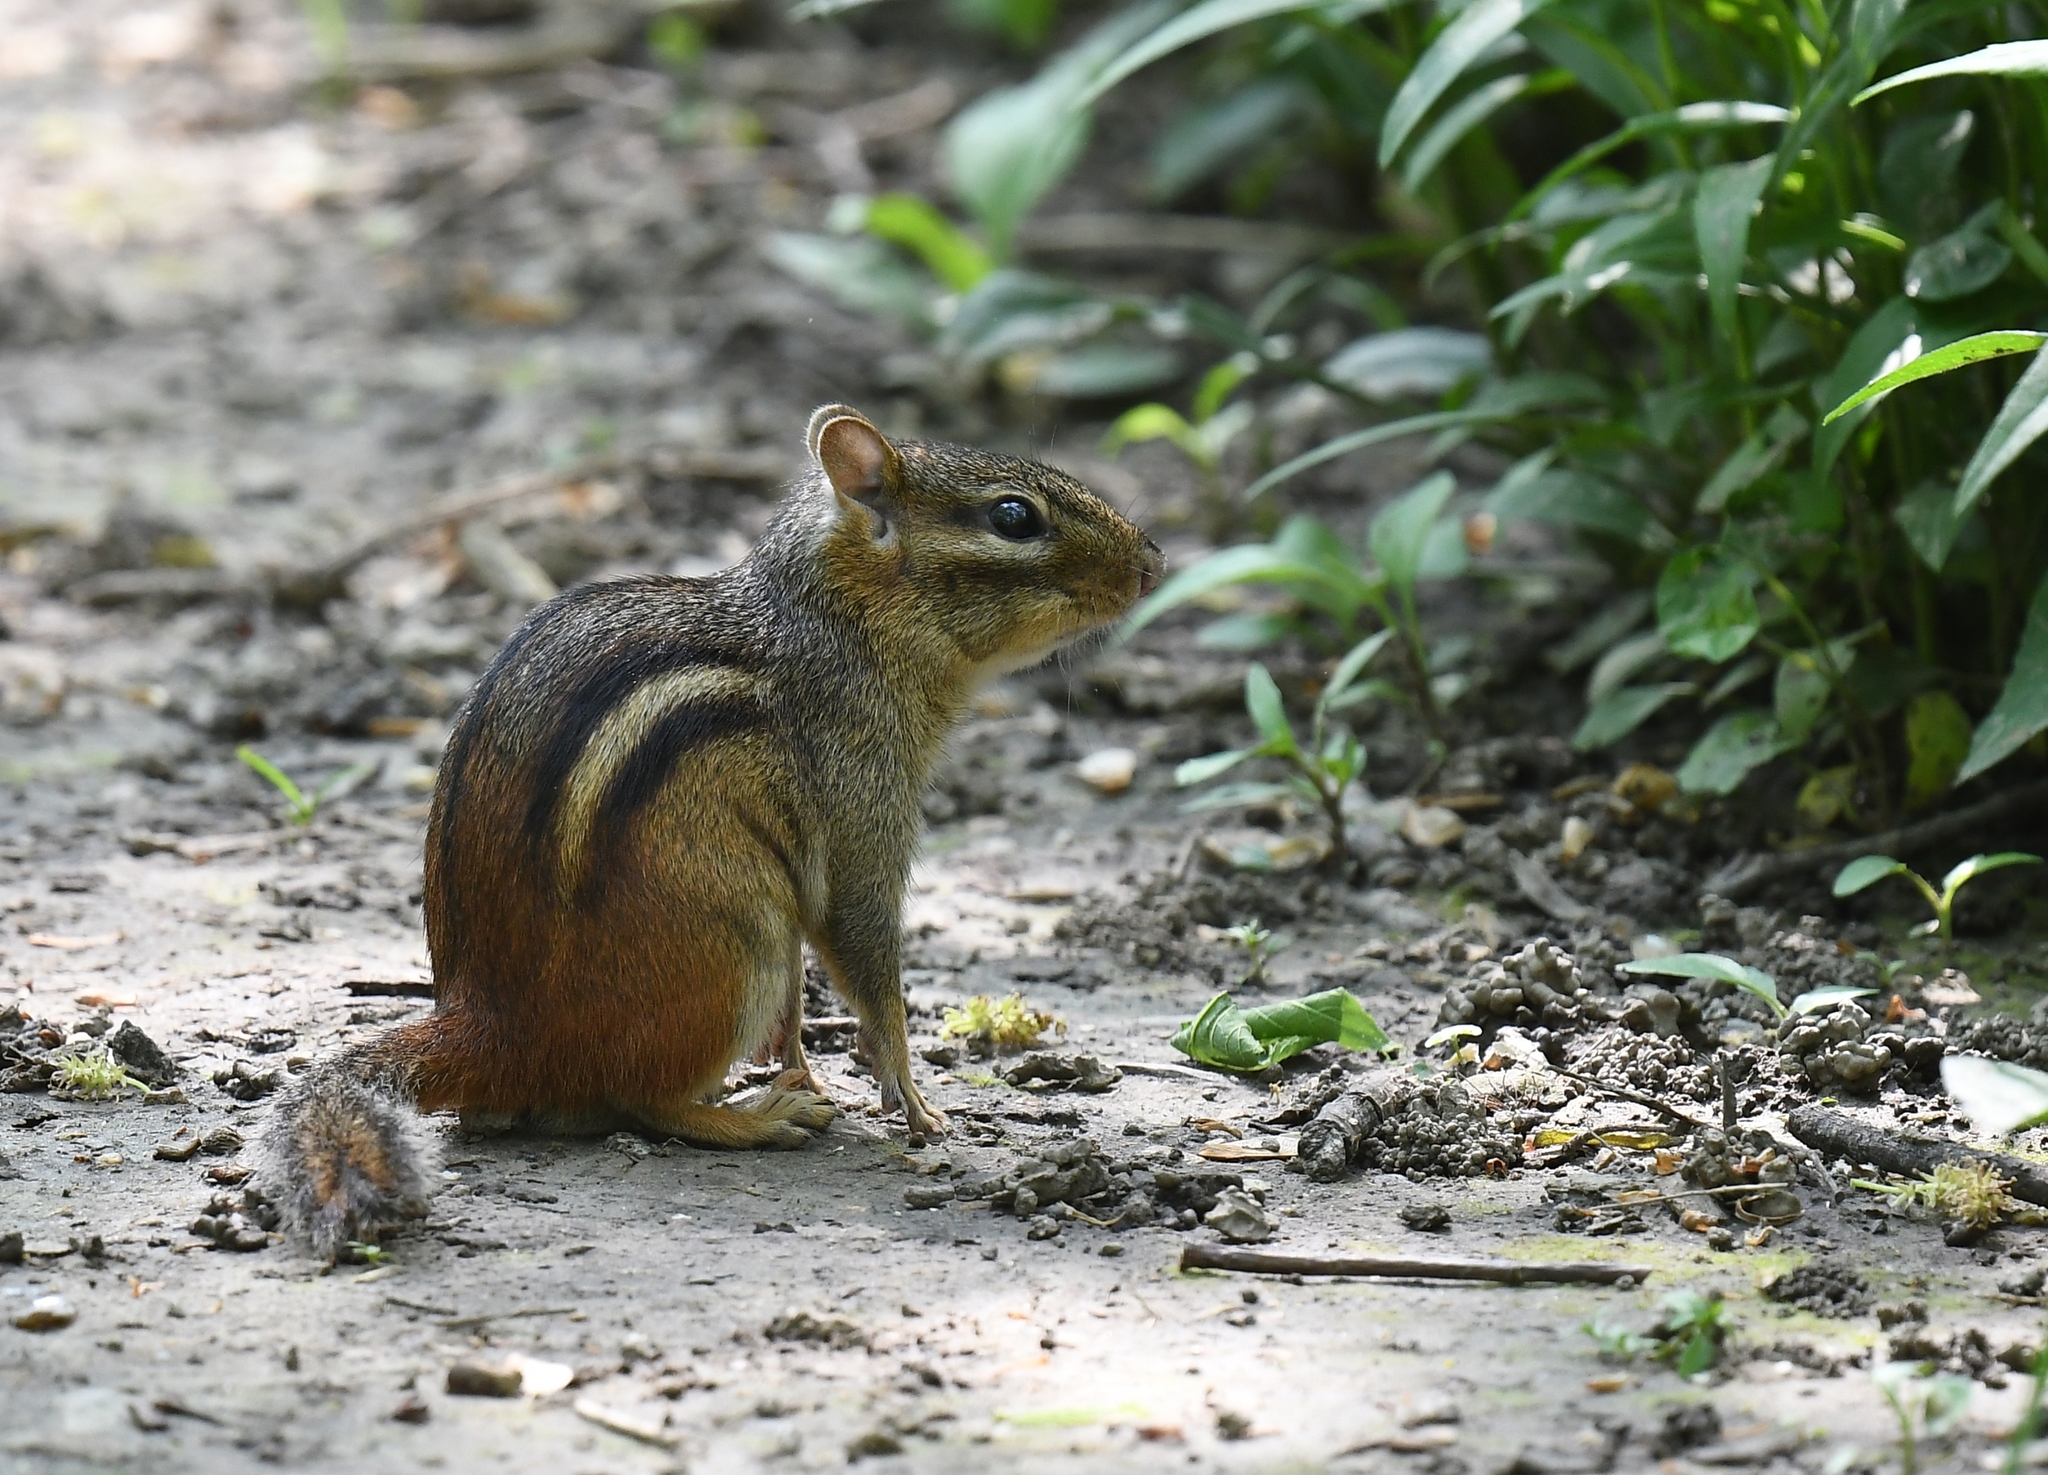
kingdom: Animalia
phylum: Chordata
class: Mammalia
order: Rodentia
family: Sciuridae
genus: Tamias
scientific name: Tamias striatus
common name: Eastern chipmunk
